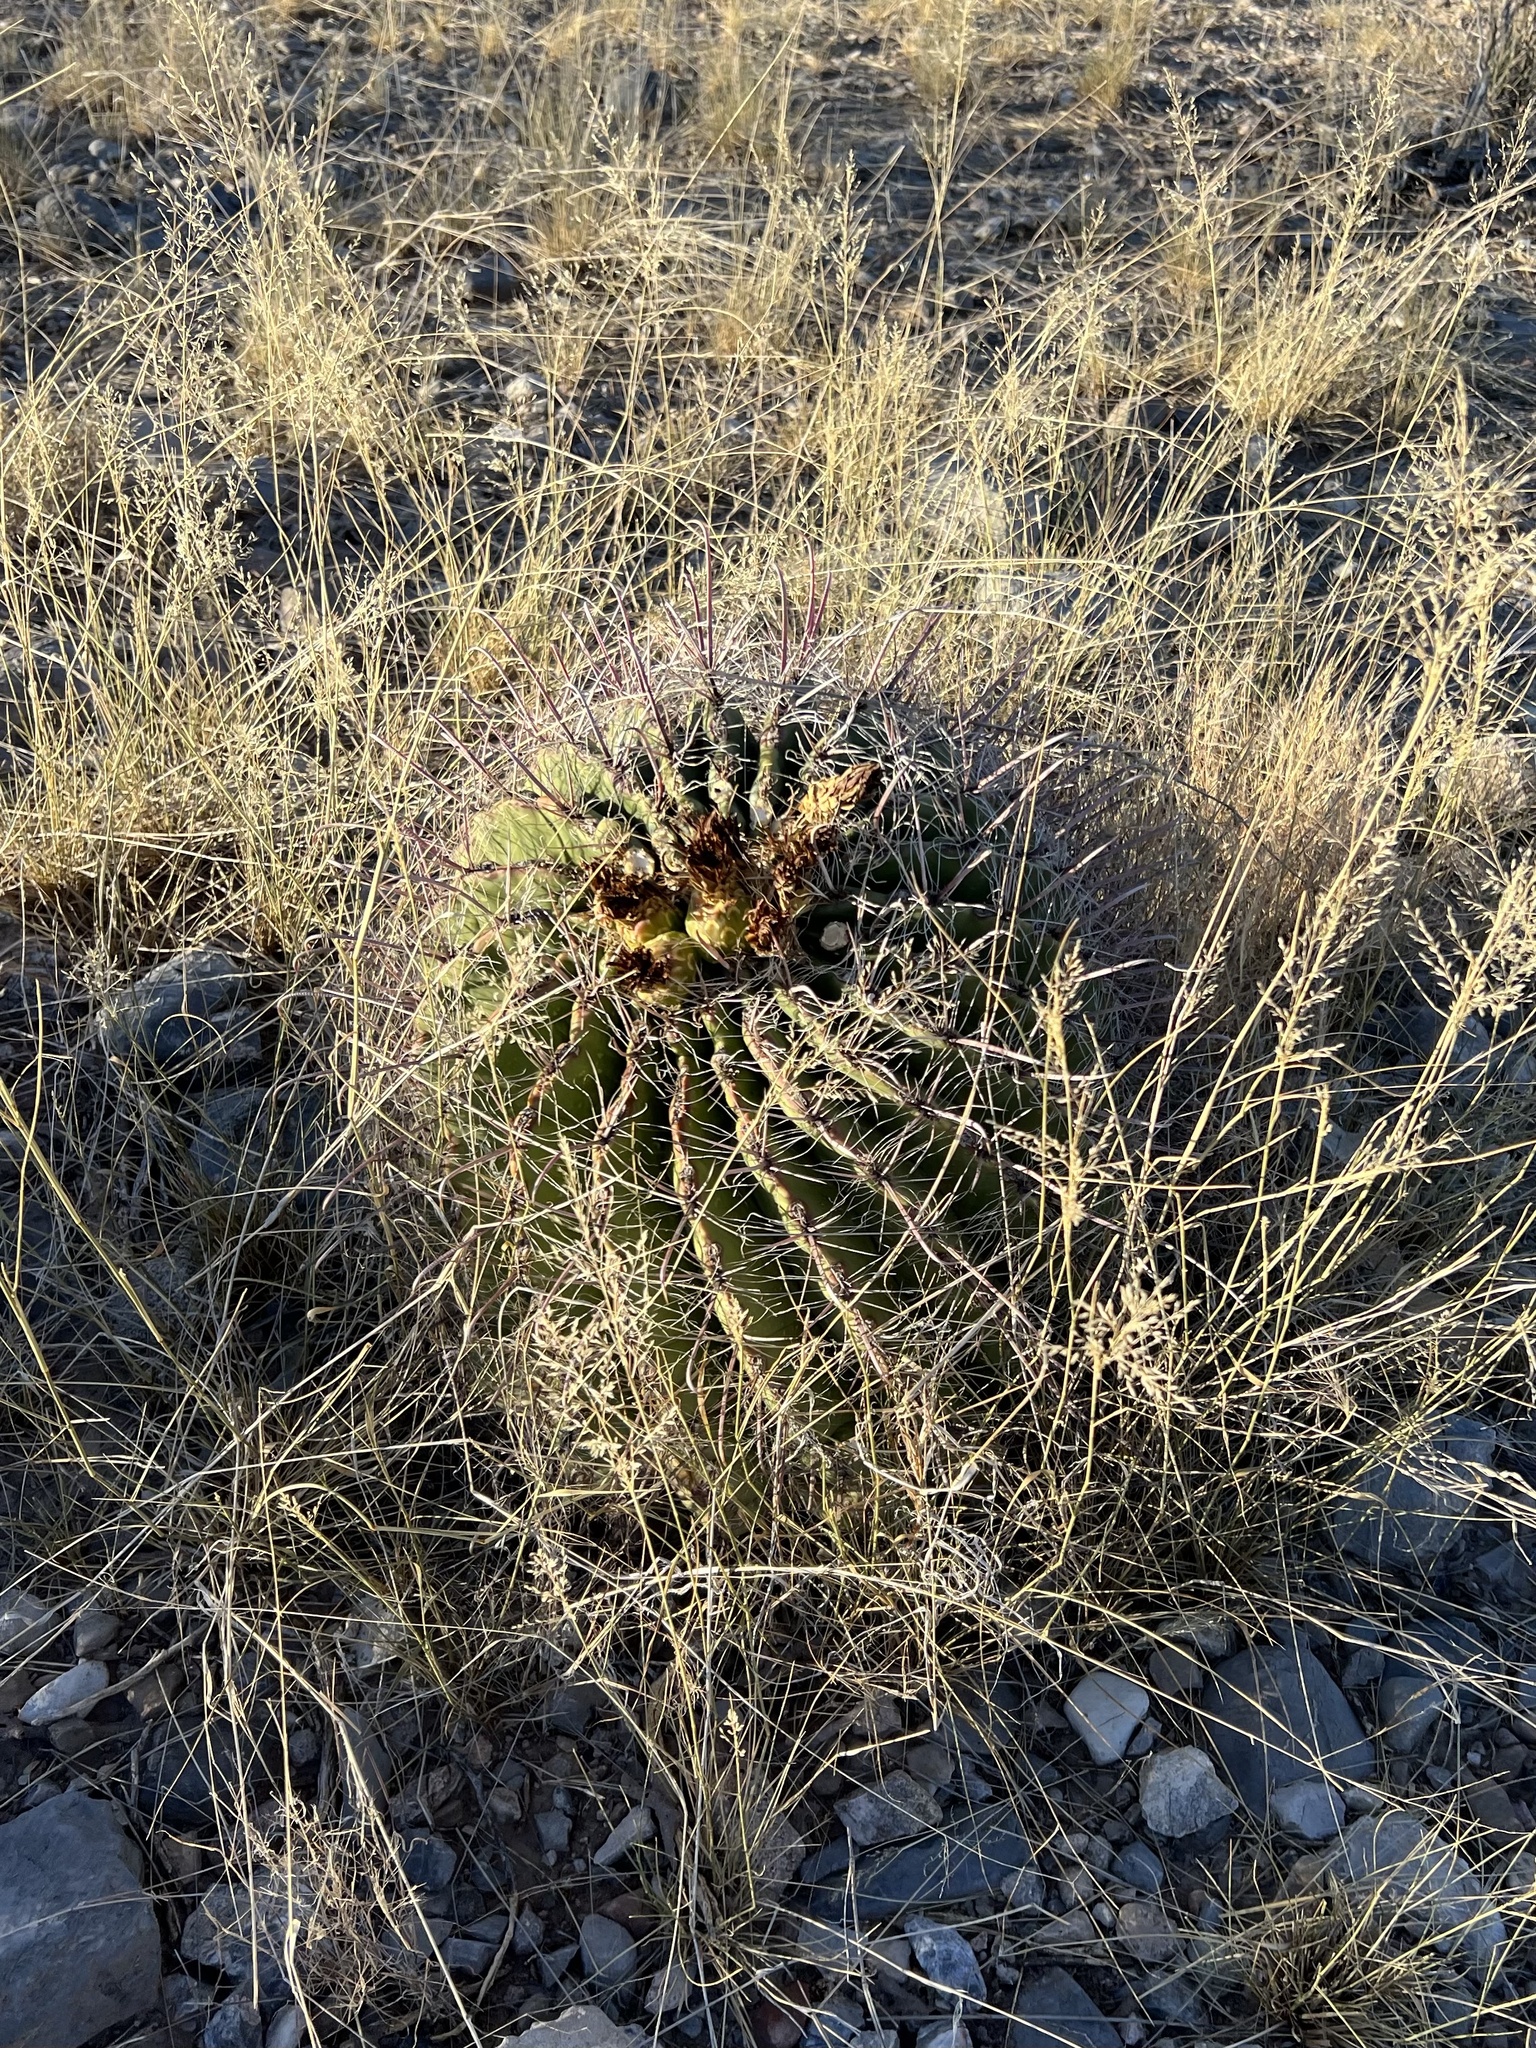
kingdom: Plantae
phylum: Tracheophyta
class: Magnoliopsida
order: Caryophyllales
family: Cactaceae
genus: Ferocactus
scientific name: Ferocactus wislizeni
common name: Candy barrel cactus
